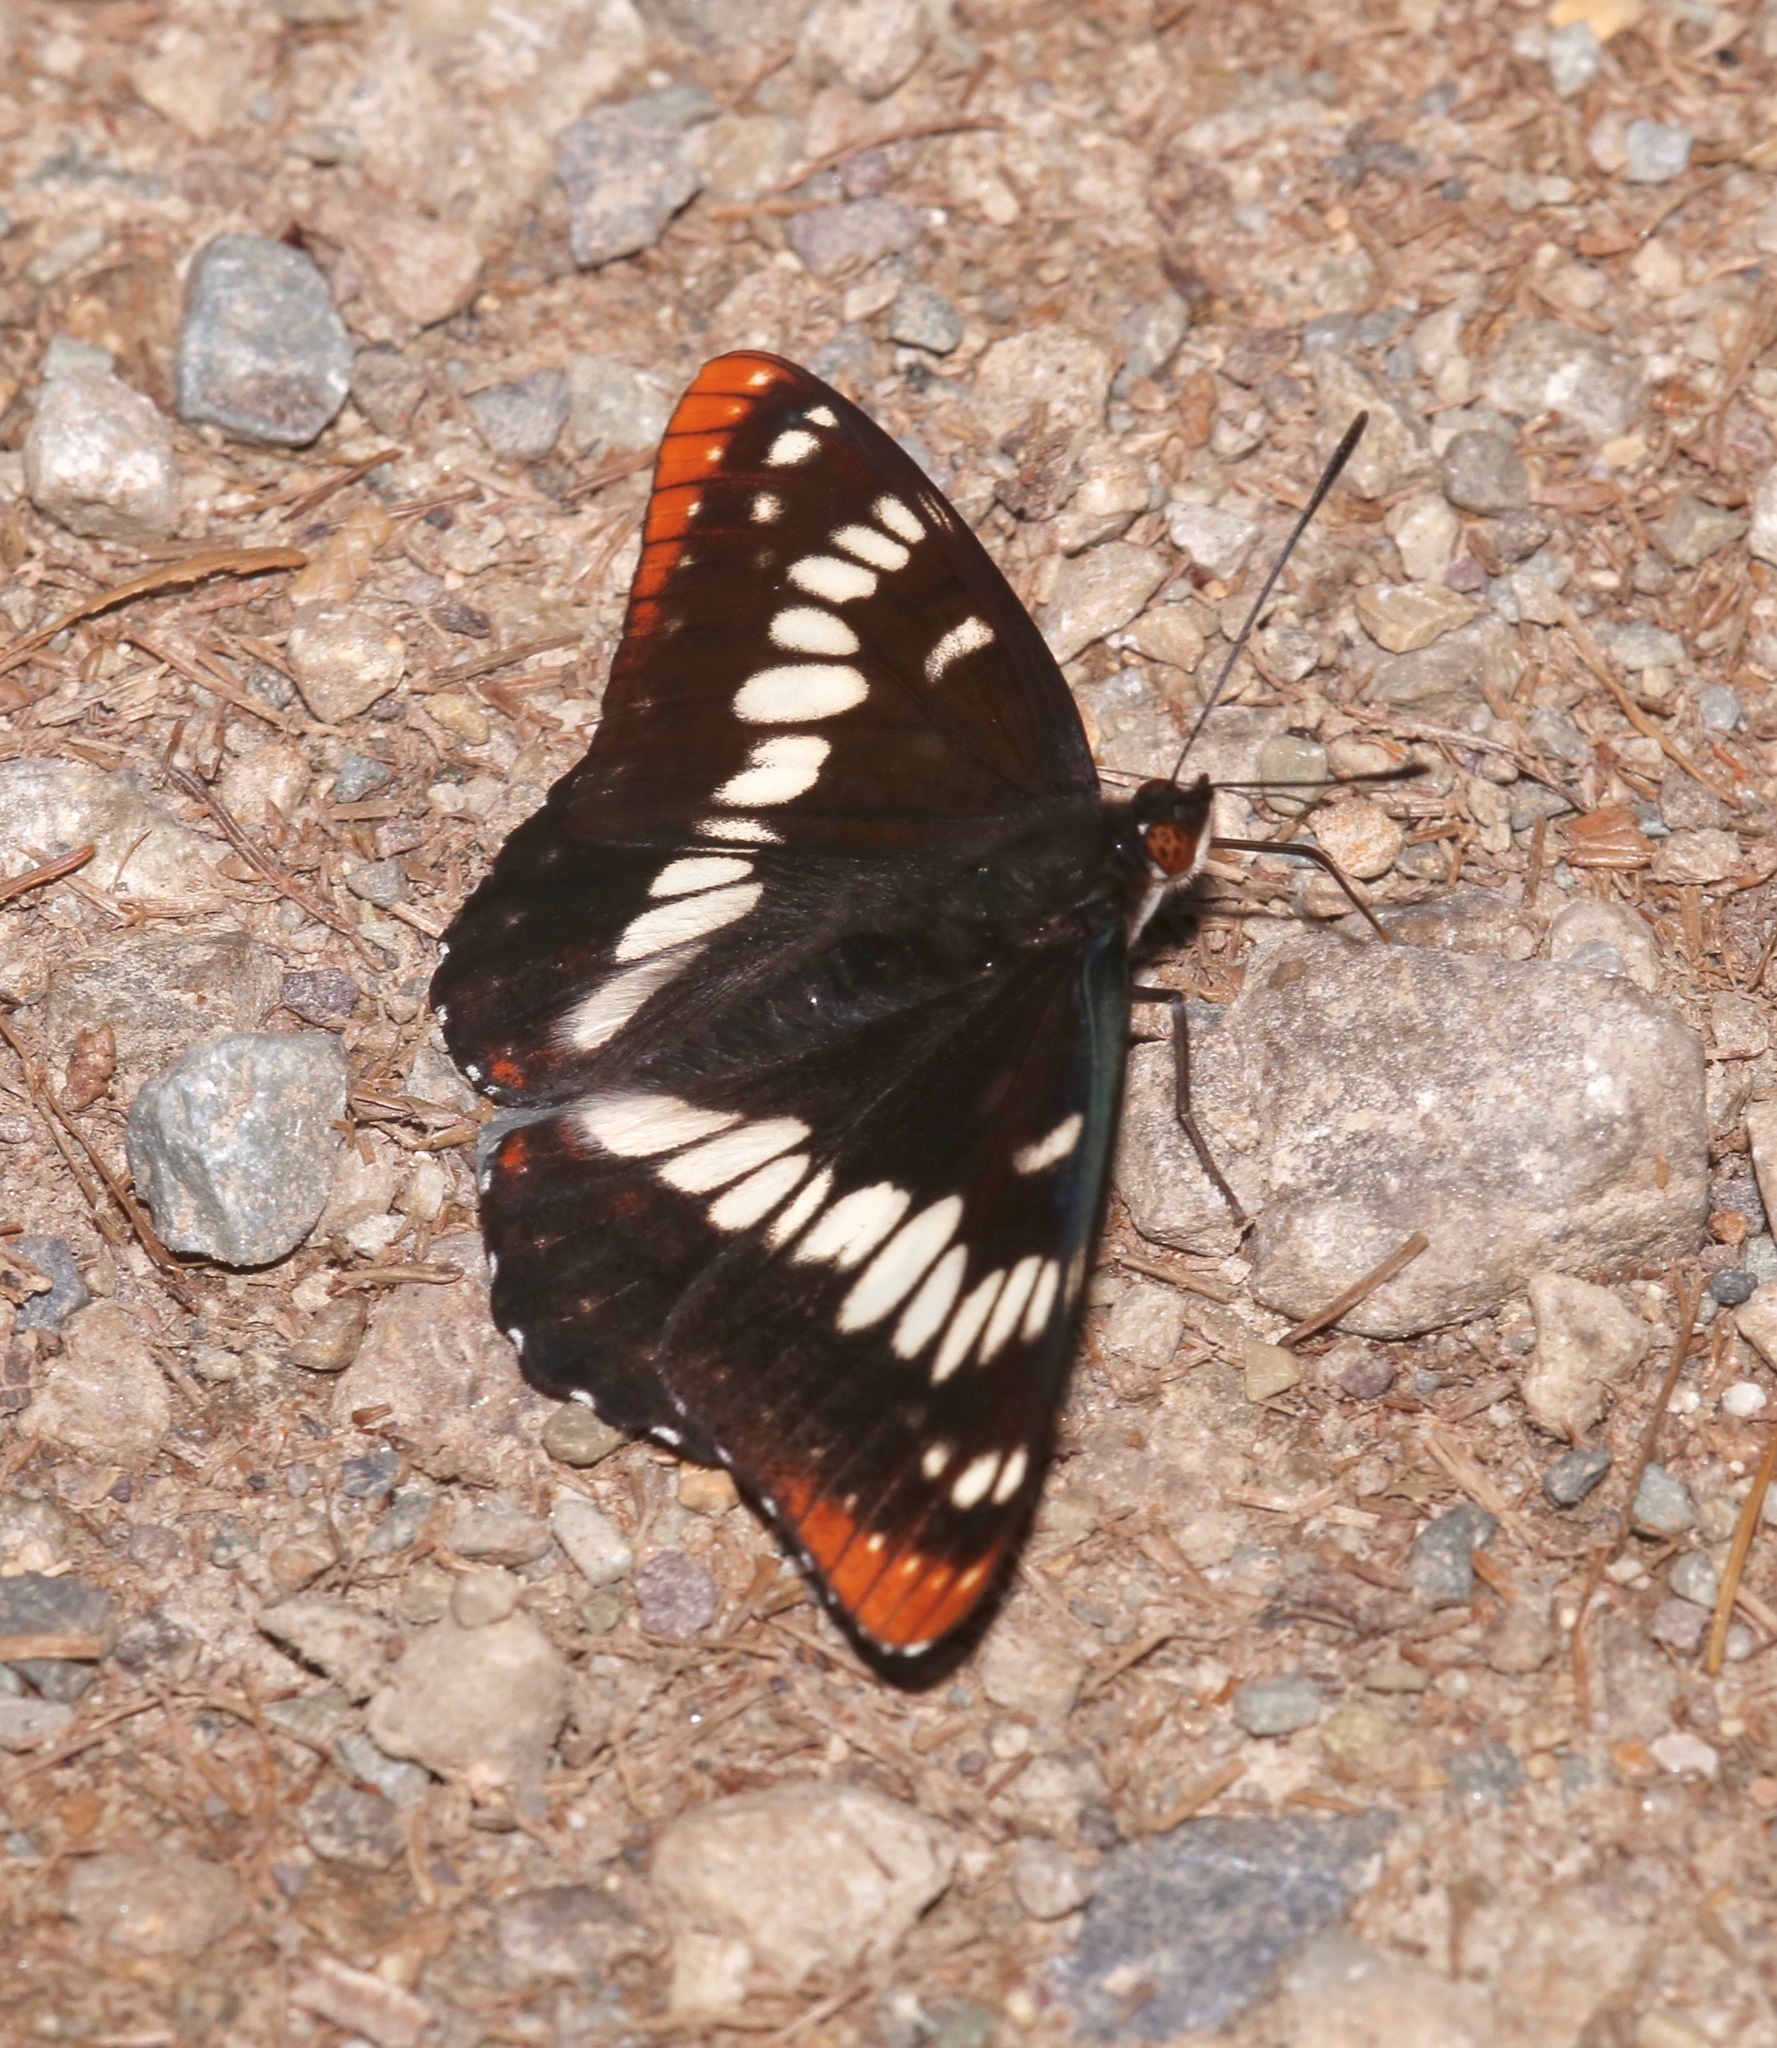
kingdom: Animalia
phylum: Arthropoda
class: Insecta
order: Lepidoptera
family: Nymphalidae
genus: Limenitis
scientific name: Limenitis lorquini
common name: Lorquin's admiral
